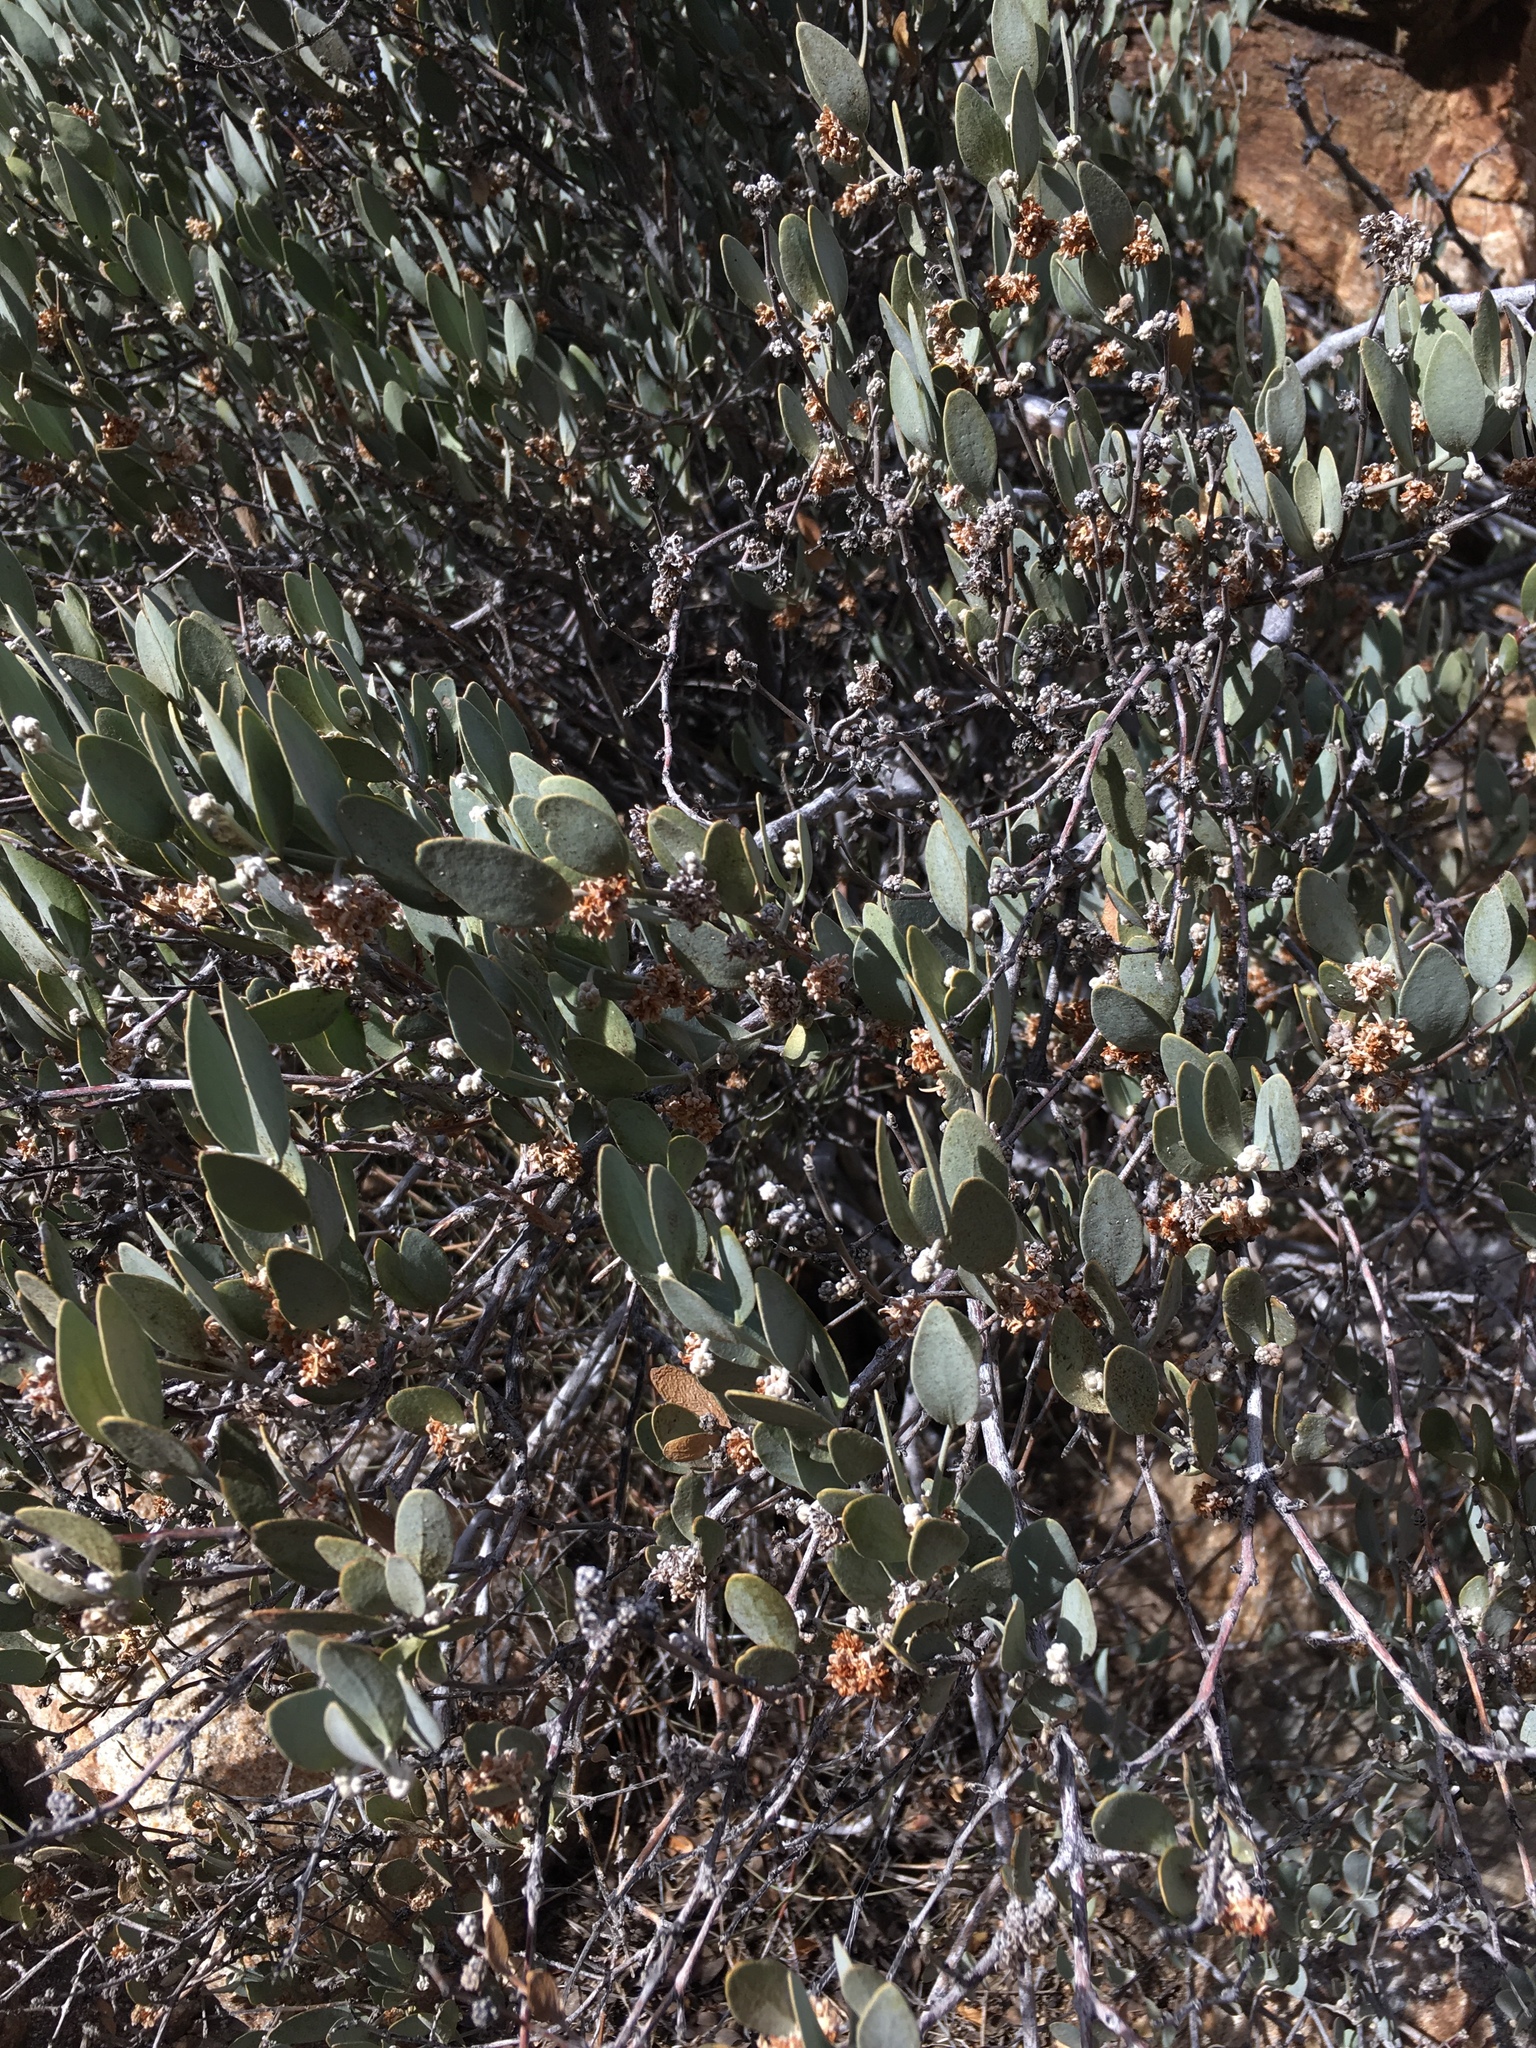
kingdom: Plantae
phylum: Tracheophyta
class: Magnoliopsida
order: Caryophyllales
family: Simmondsiaceae
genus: Simmondsia
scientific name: Simmondsia chinensis
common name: Jojoba
